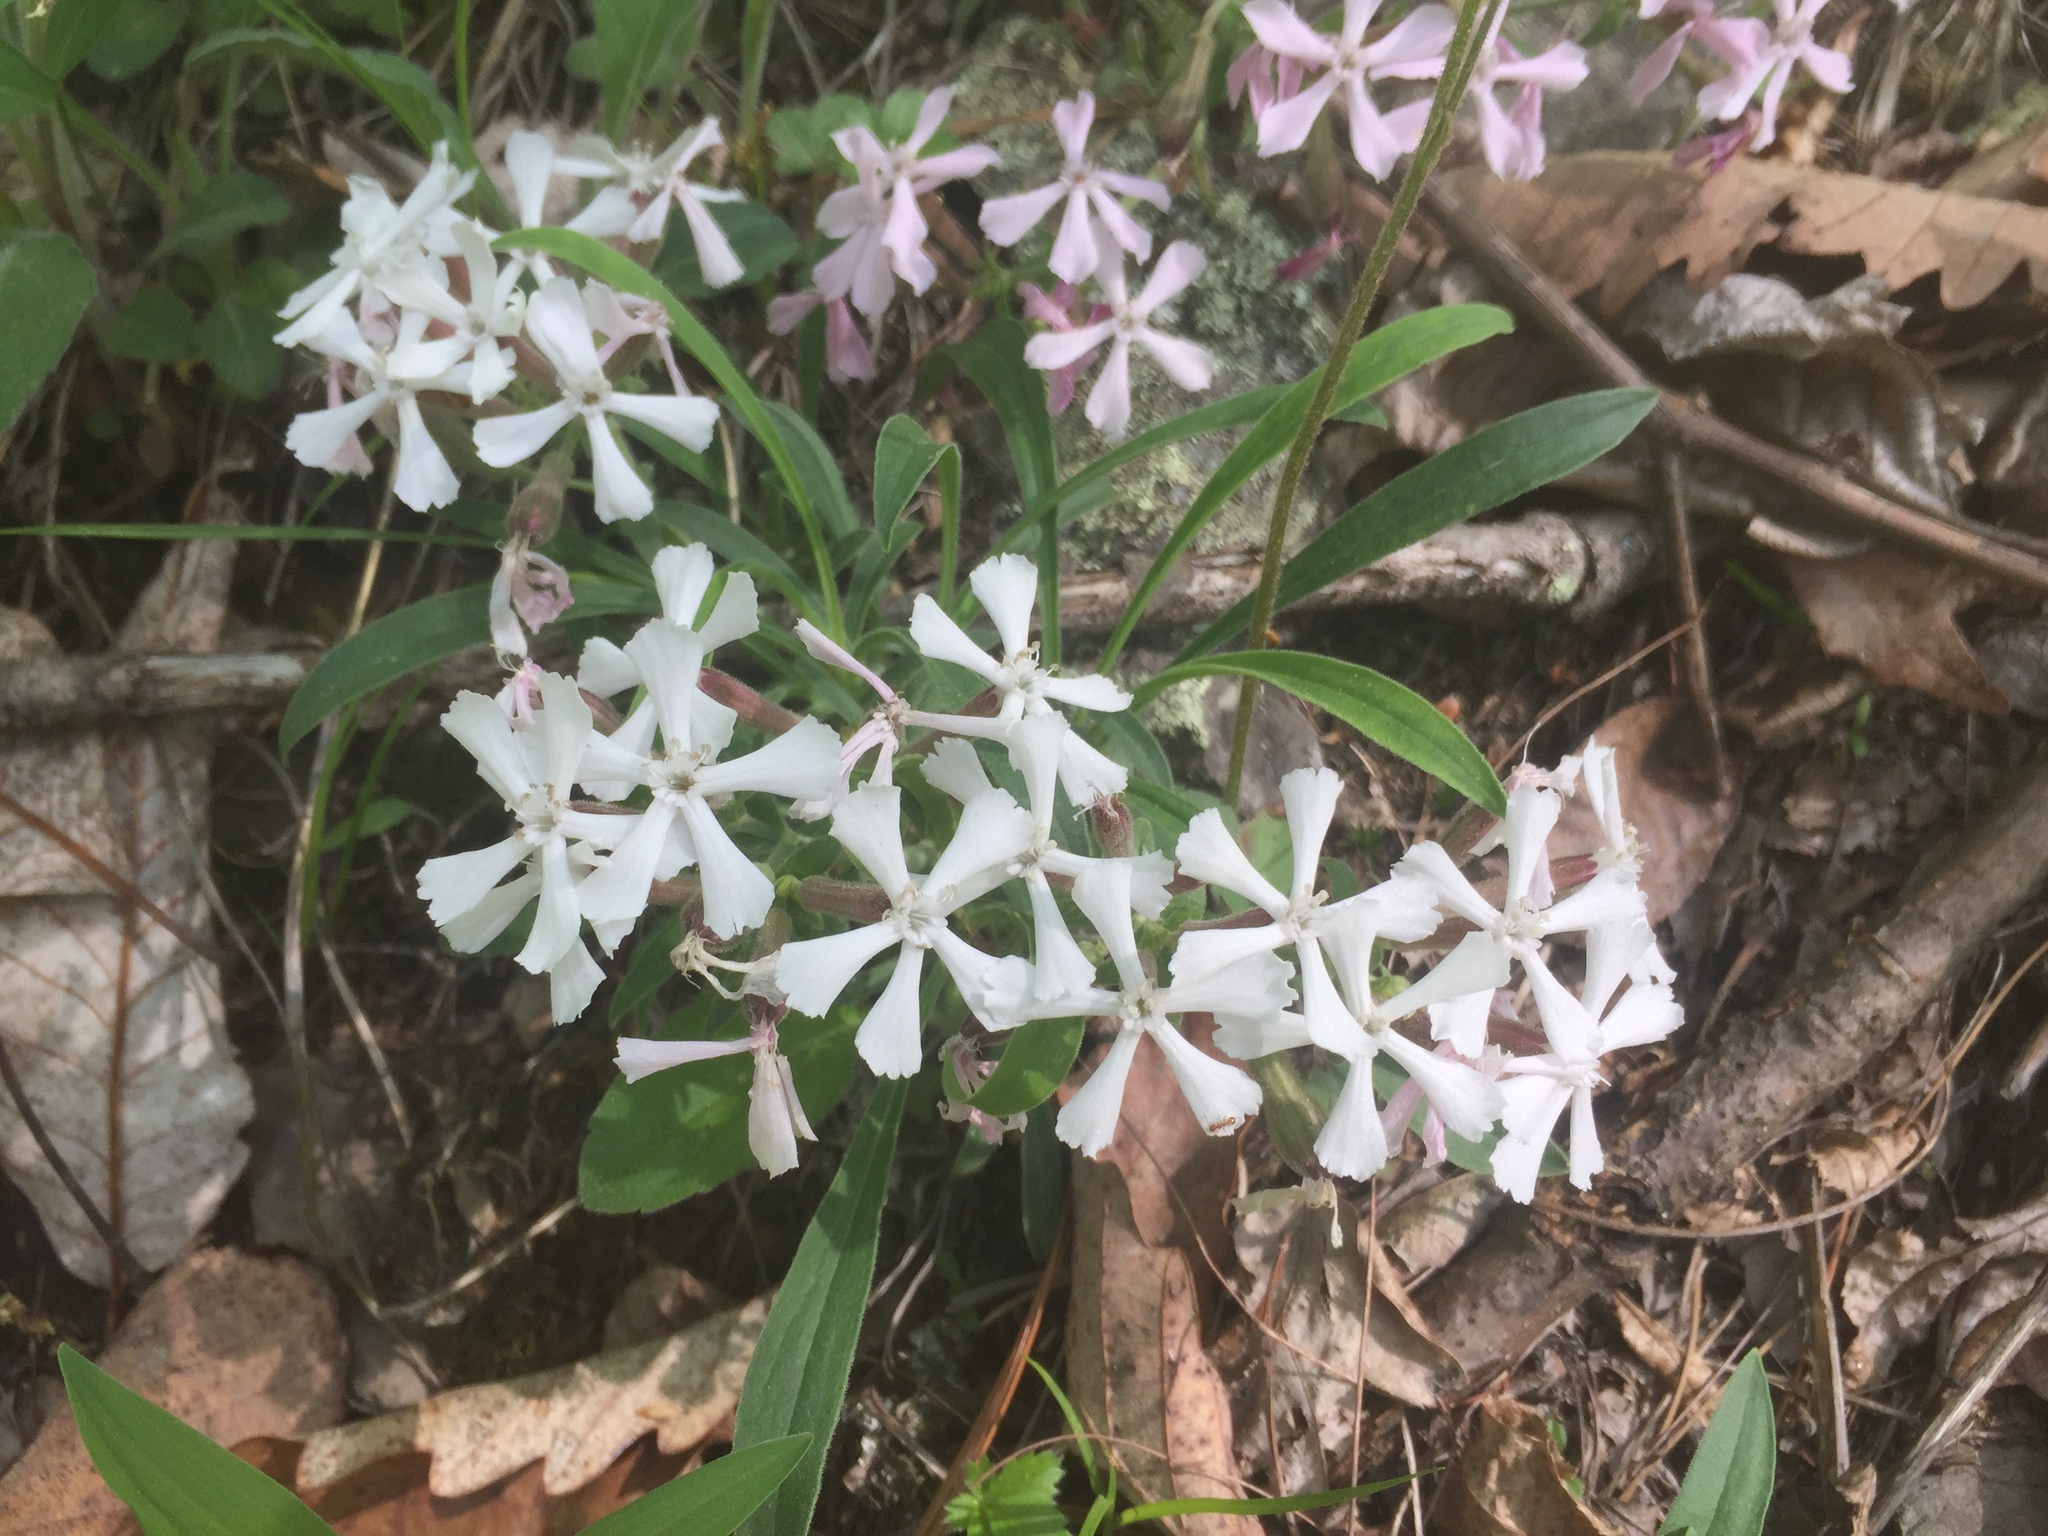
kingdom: Plantae
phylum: Tracheophyta
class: Magnoliopsida
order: Caryophyllales
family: Caryophyllaceae
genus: Silene
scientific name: Silene caroliniana
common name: Sticky catchfly
